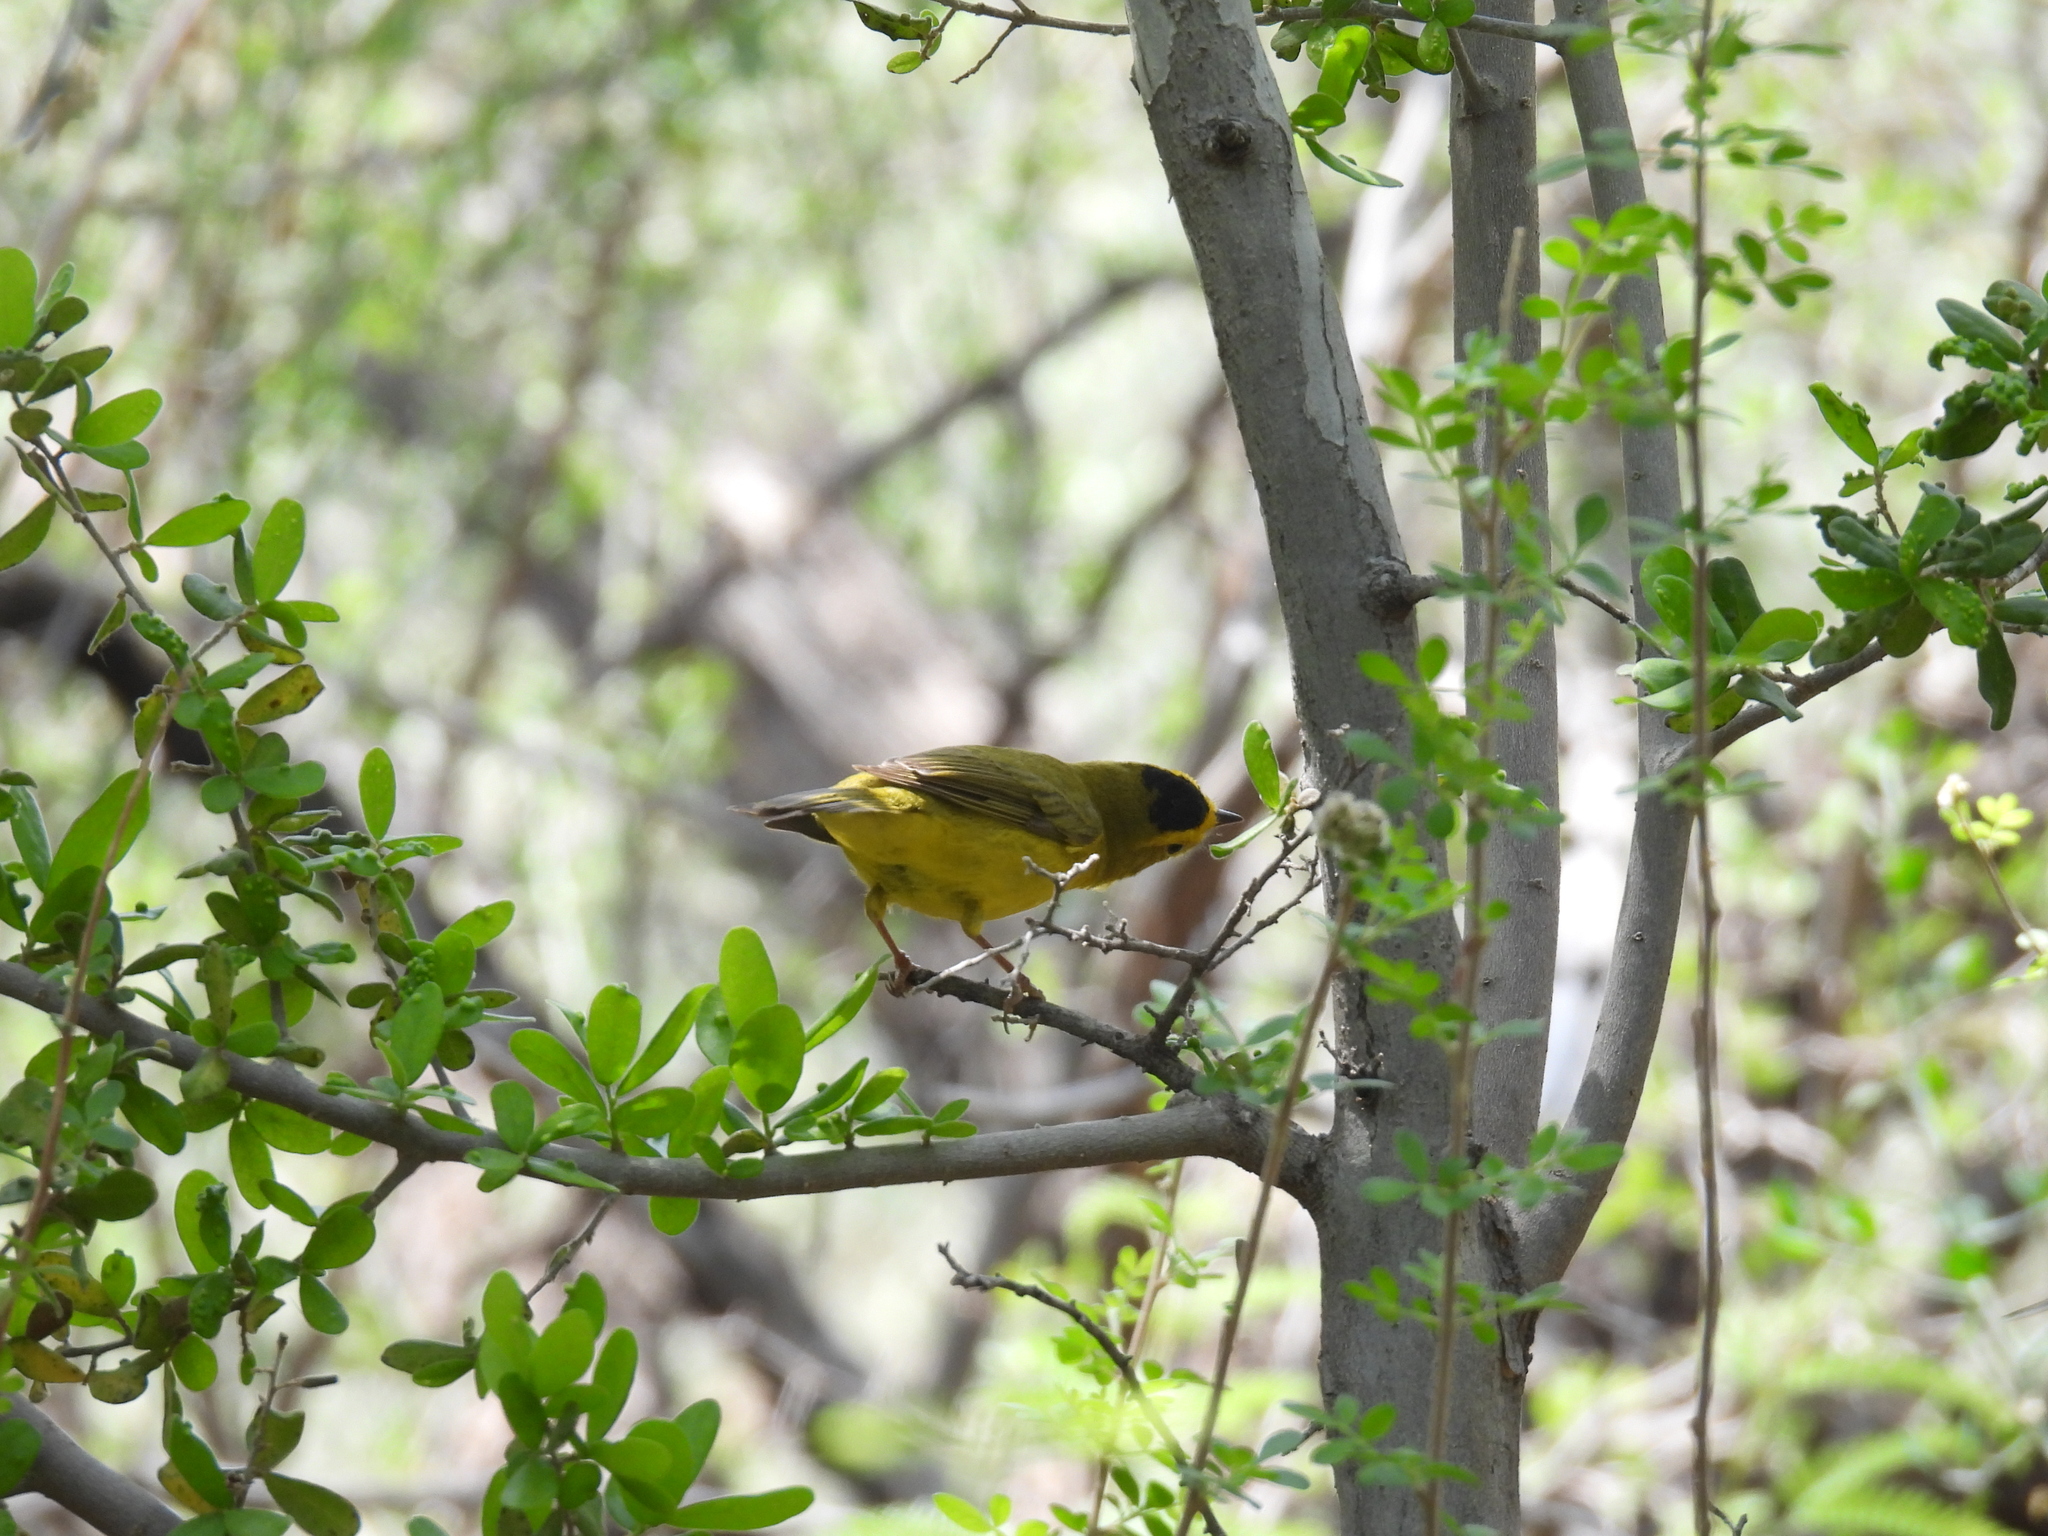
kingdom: Animalia
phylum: Chordata
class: Aves
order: Passeriformes
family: Parulidae
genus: Cardellina
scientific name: Cardellina pusilla
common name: Wilson's warbler
